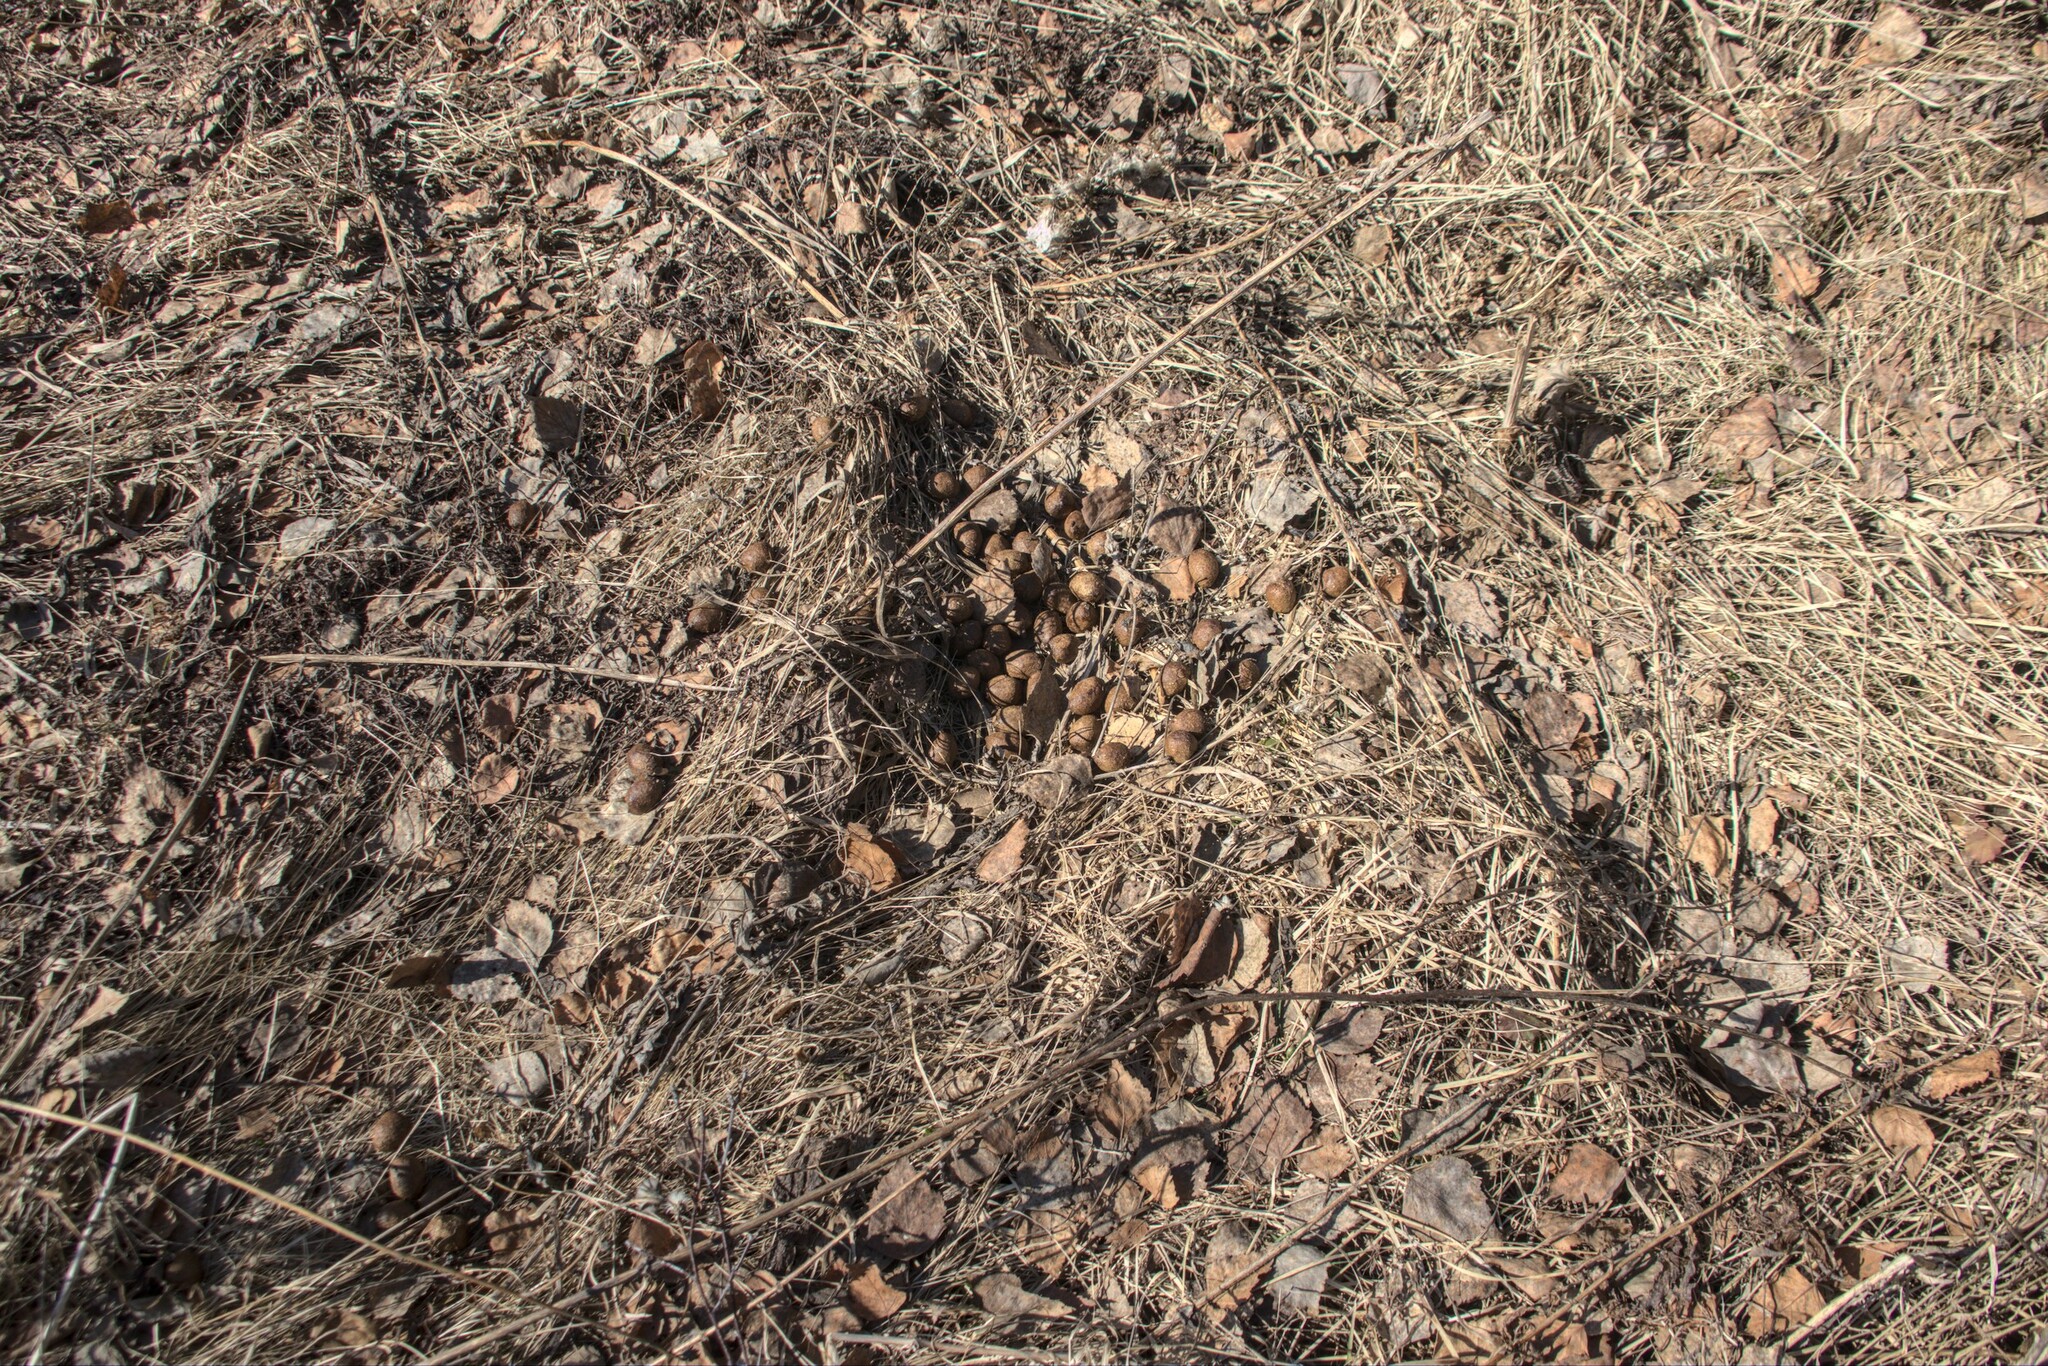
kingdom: Animalia
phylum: Chordata
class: Mammalia
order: Artiodactyla
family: Cervidae
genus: Alces
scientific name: Alces alces
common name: Moose
